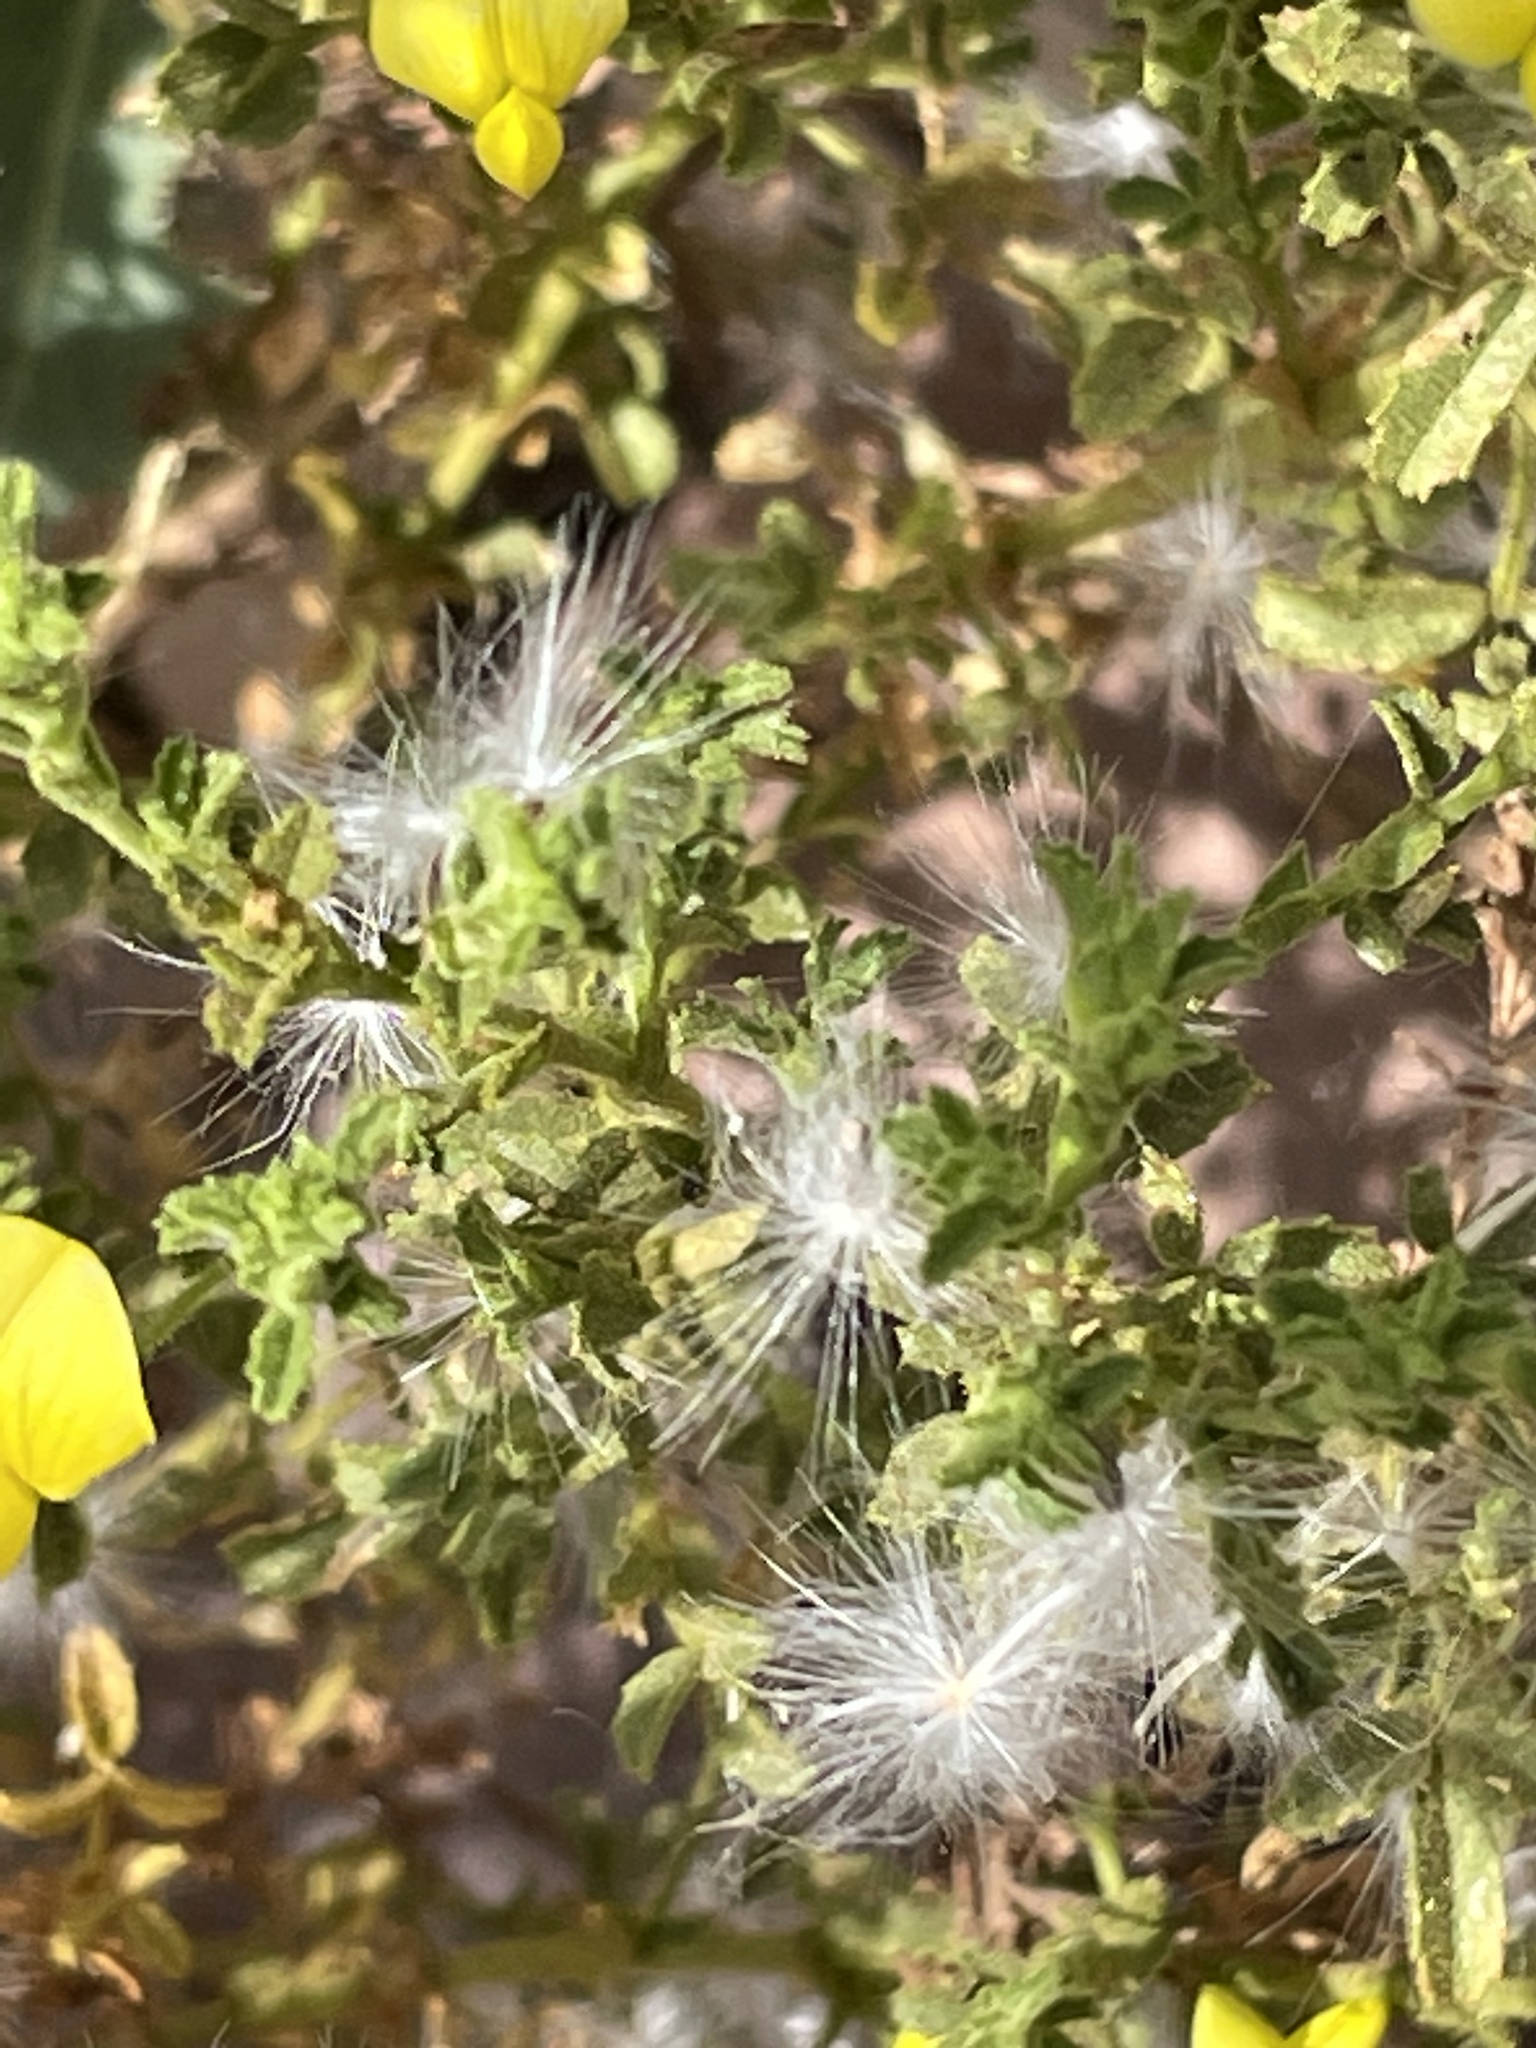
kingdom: Plantae
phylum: Tracheophyta
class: Magnoliopsida
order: Fabales
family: Fabaceae
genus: Ononis
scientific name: Ononis natrix
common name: Yellow restharrow
